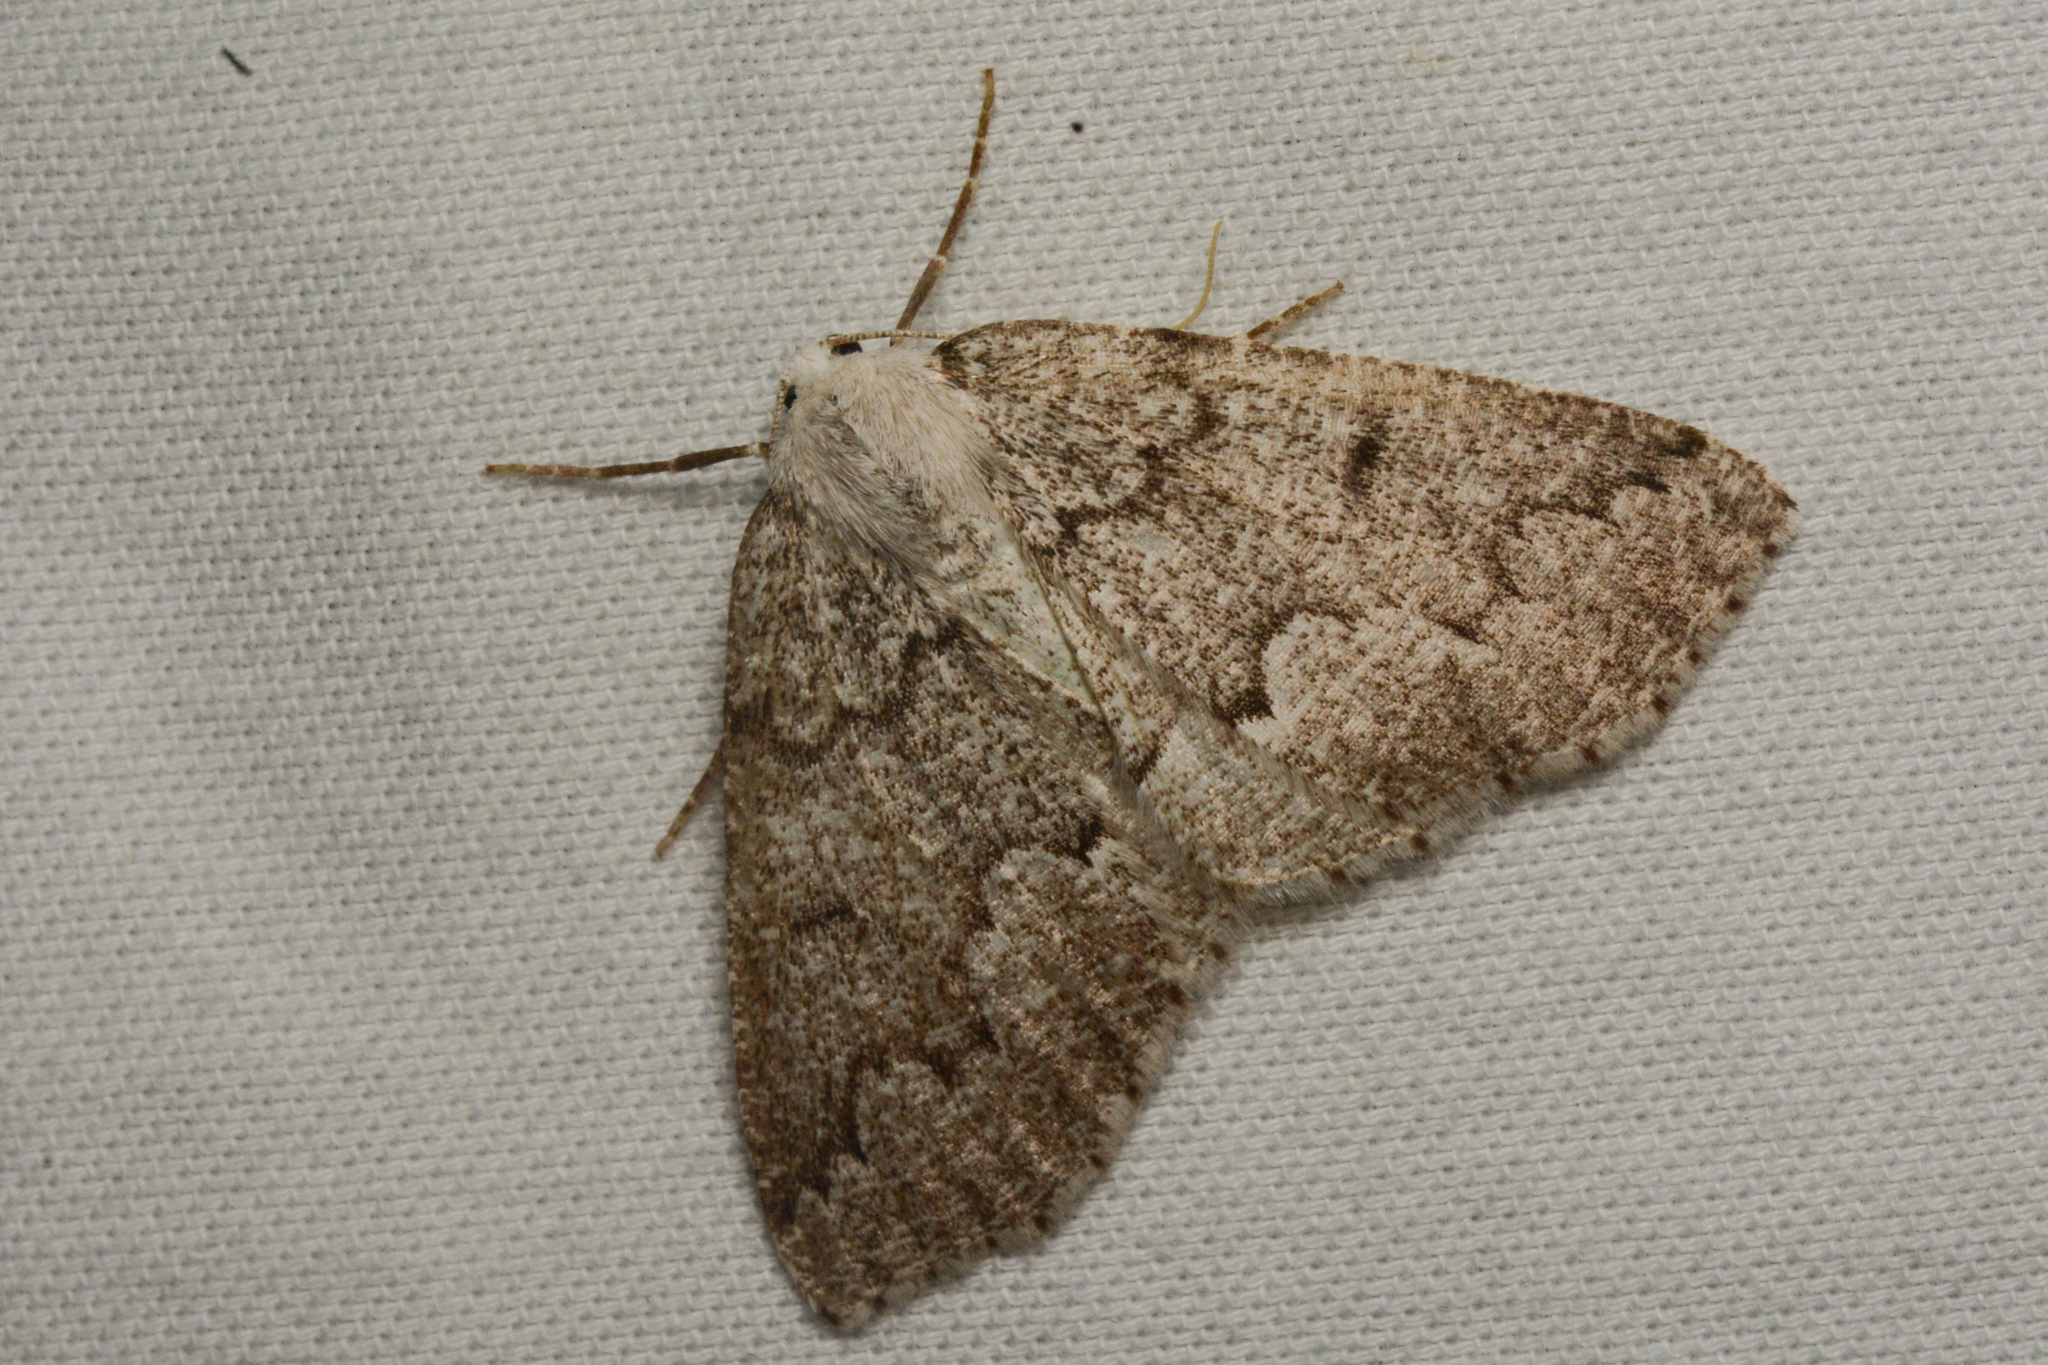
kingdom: Animalia
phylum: Arthropoda
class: Insecta
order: Lepidoptera
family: Geometridae
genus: Sabulodes
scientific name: Sabulodes
